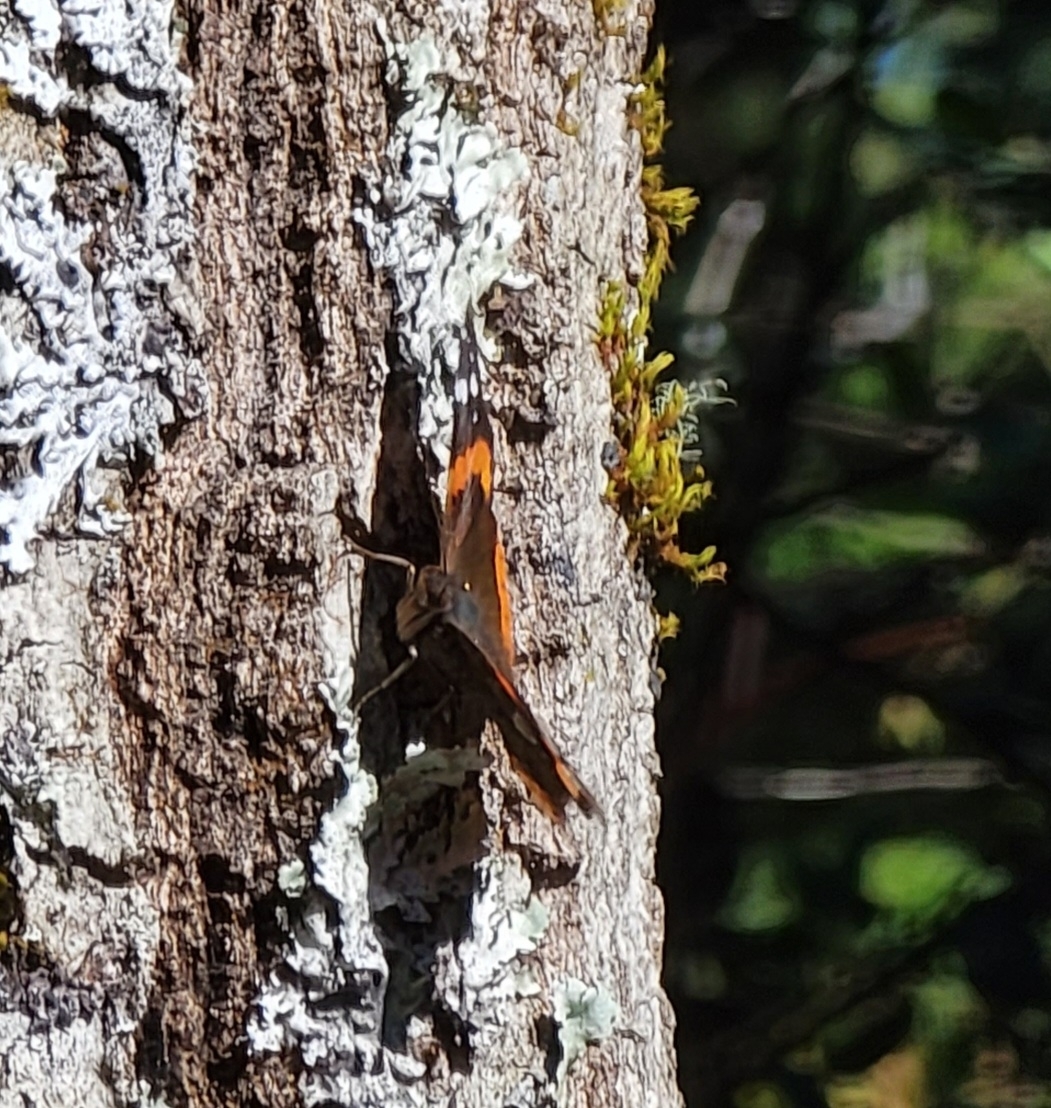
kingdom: Animalia
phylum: Arthropoda
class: Insecta
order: Lepidoptera
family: Nymphalidae
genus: Vanessa
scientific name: Vanessa atalanta
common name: Red admiral
